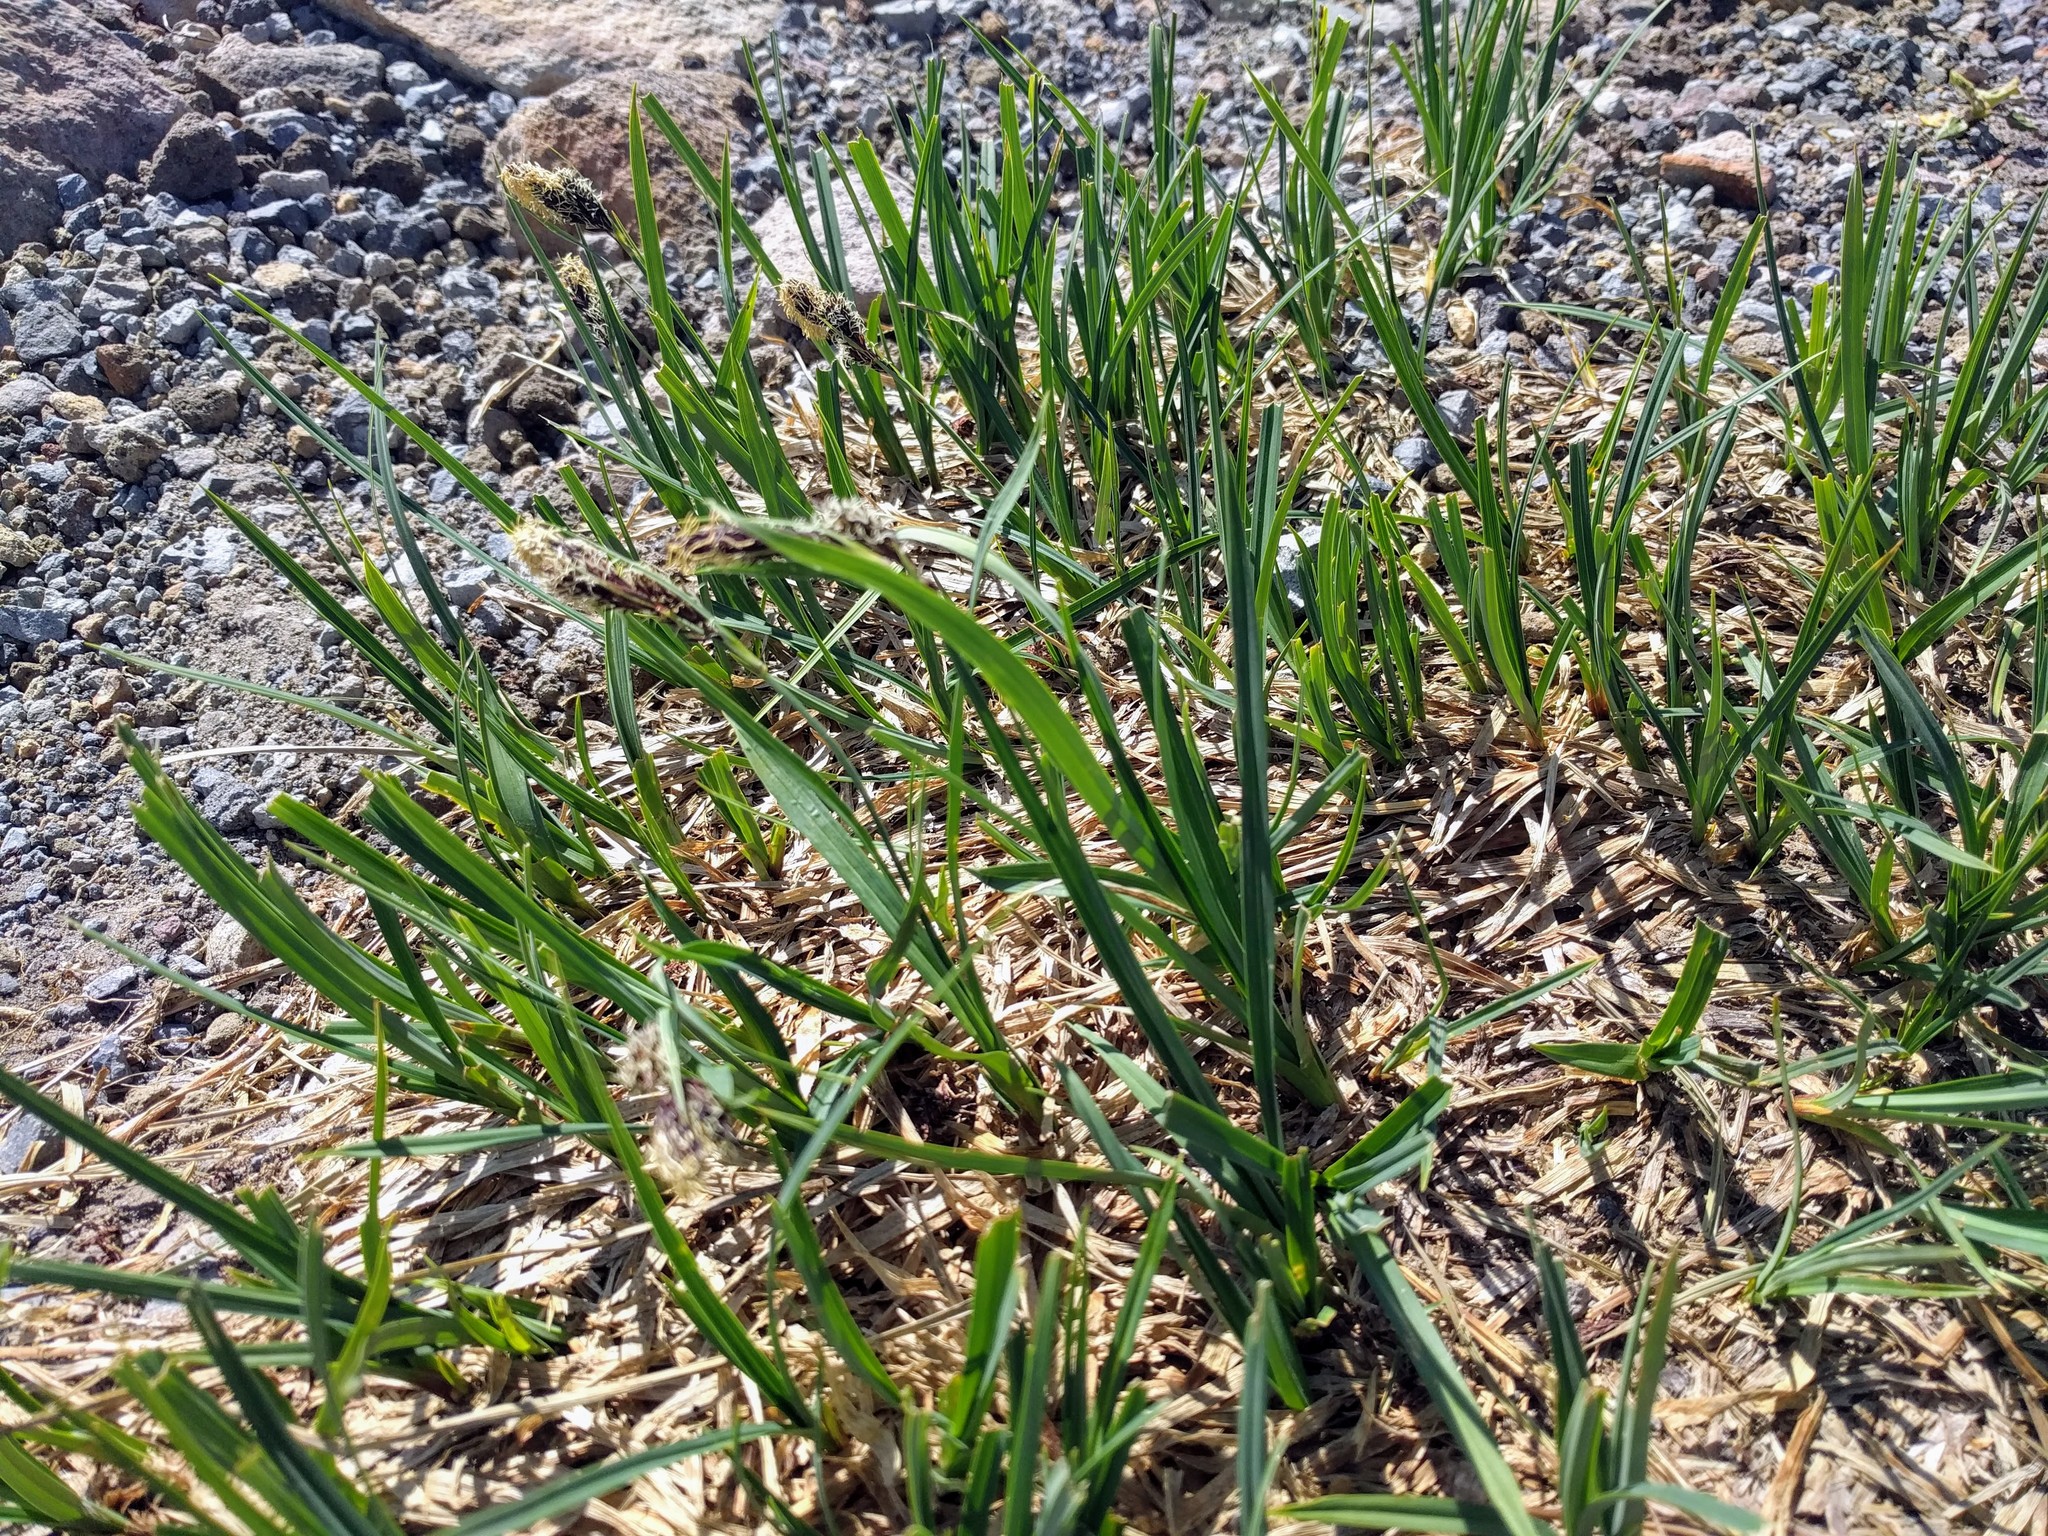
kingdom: Plantae
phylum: Tracheophyta
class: Liliopsida
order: Poales
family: Cyperaceae
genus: Carex
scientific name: Carex spectabilis
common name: Northwestern showy sedge
